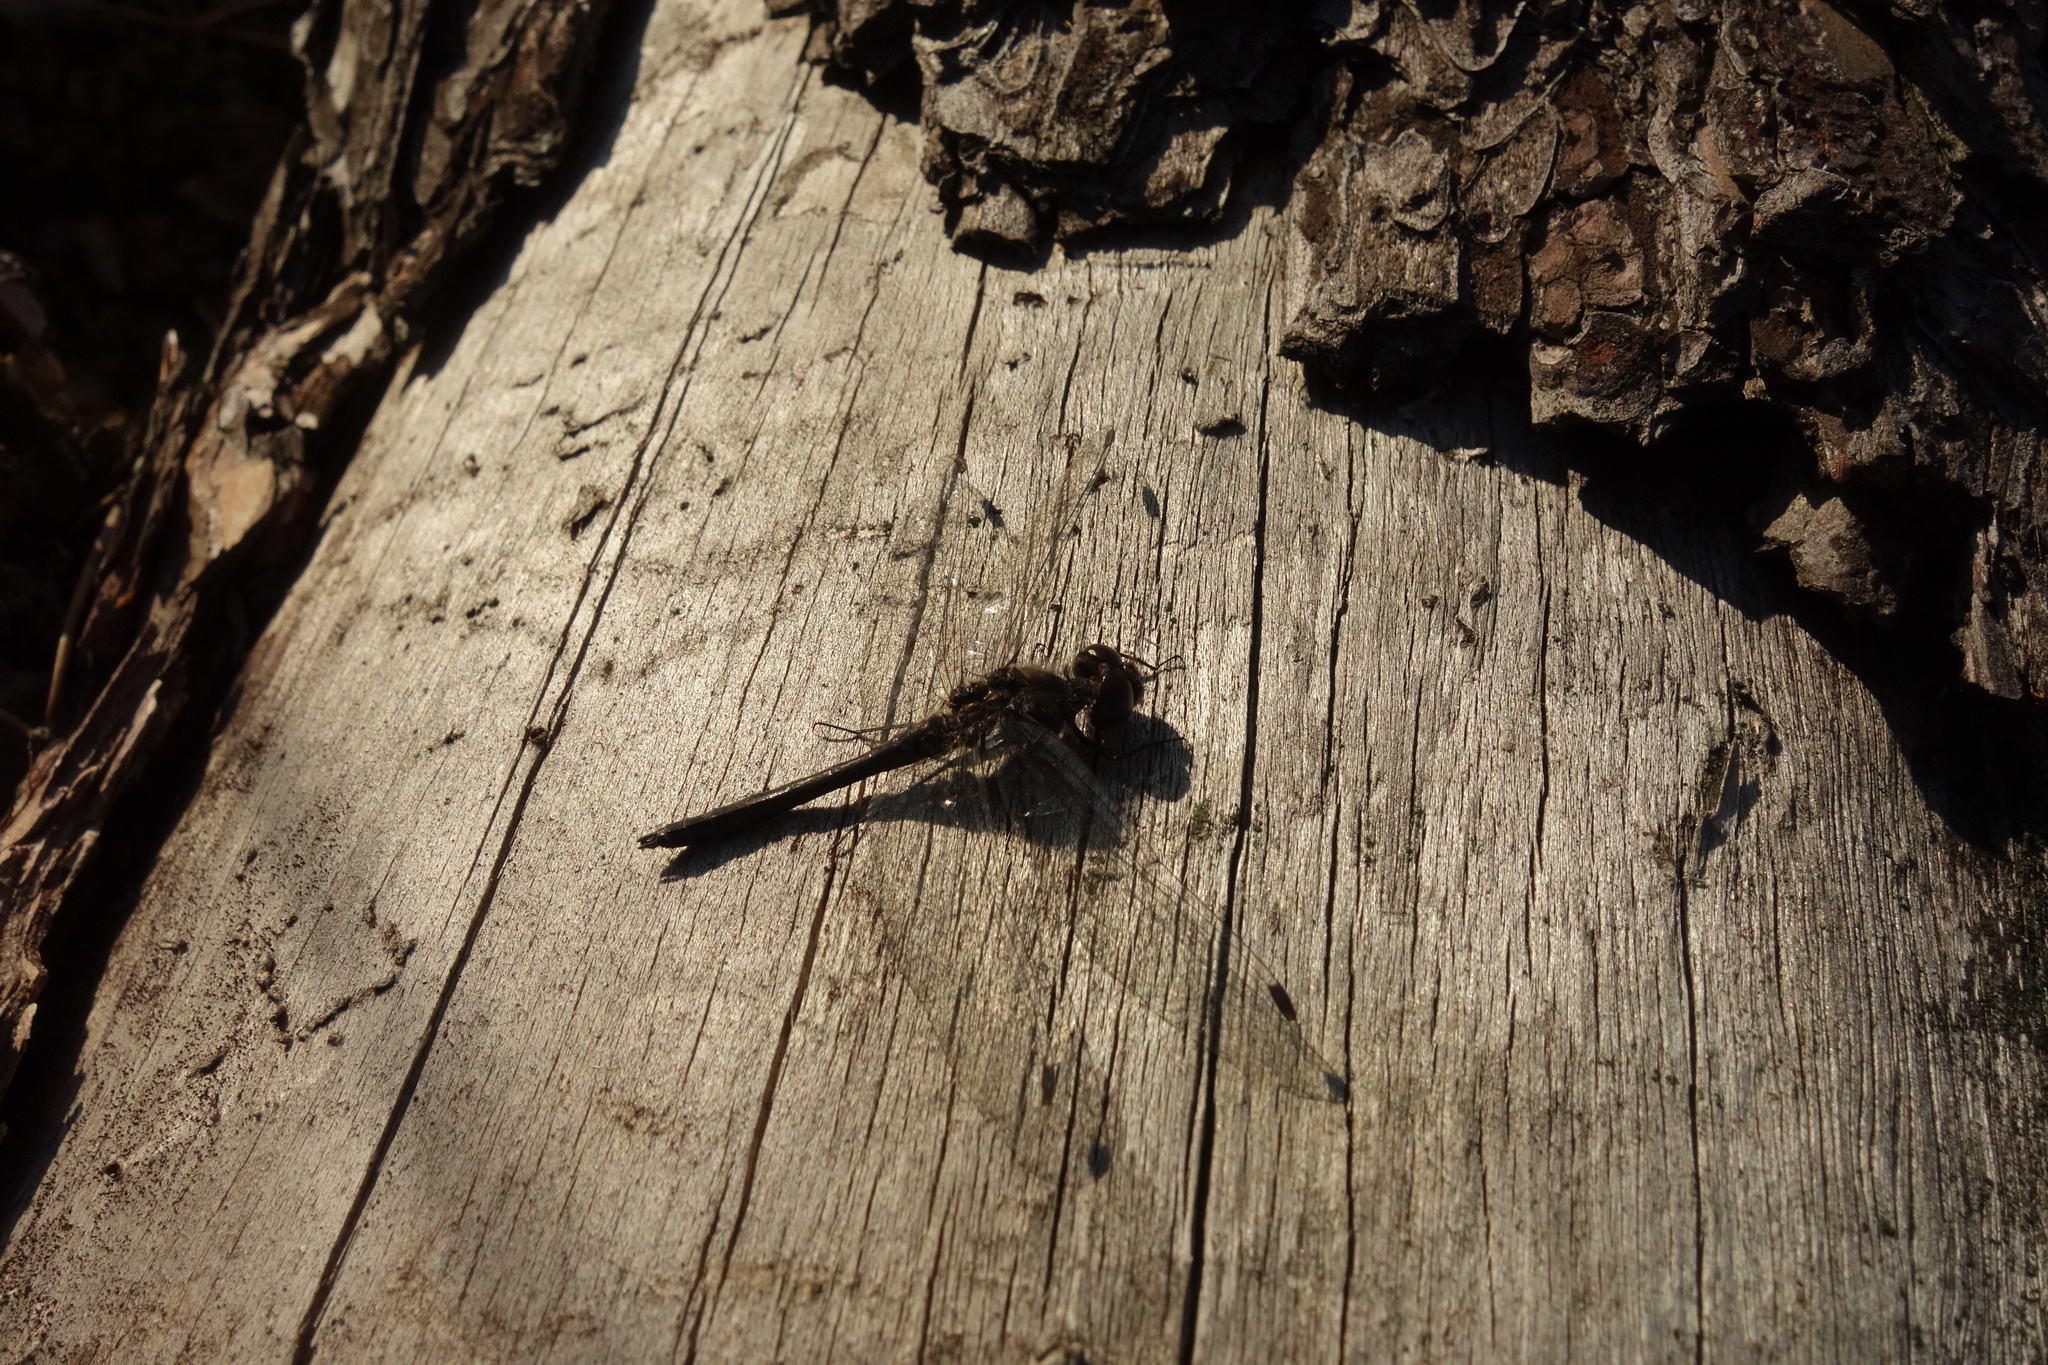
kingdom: Animalia
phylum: Arthropoda
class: Insecta
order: Odonata
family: Libellulidae
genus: Sympetrum
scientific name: Sympetrum danae
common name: Black darter
